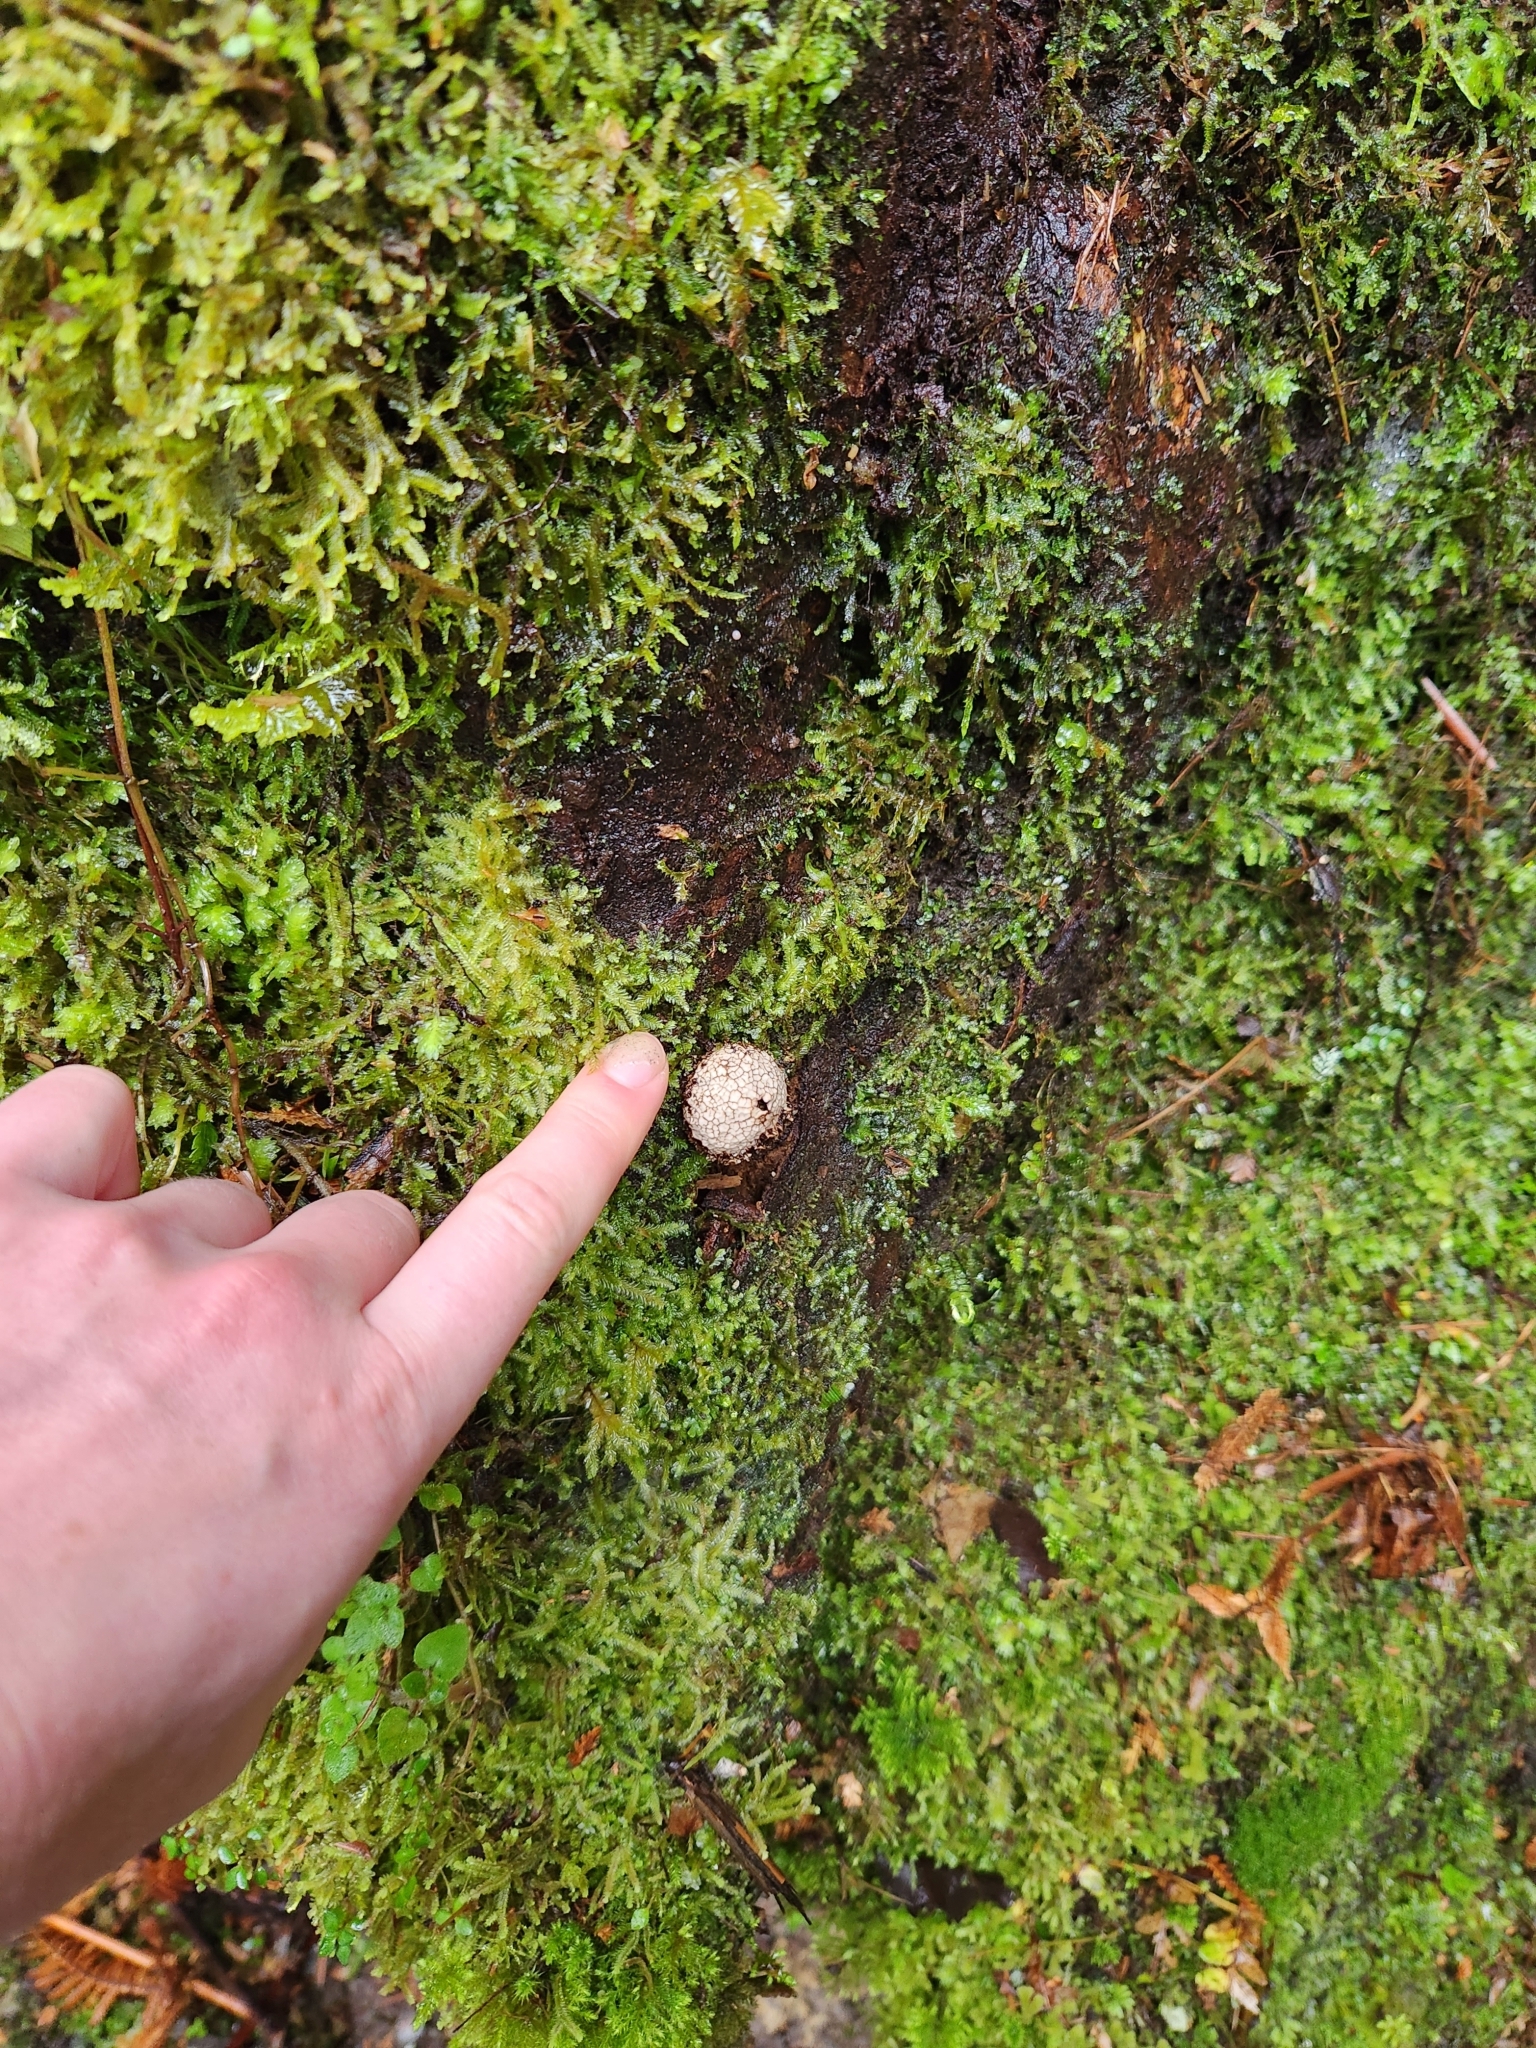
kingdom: Fungi
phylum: Basidiomycota
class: Agaricomycetes
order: Agaricales
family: Lycoperdaceae
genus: Lycoperdon
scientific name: Lycoperdon compactum
